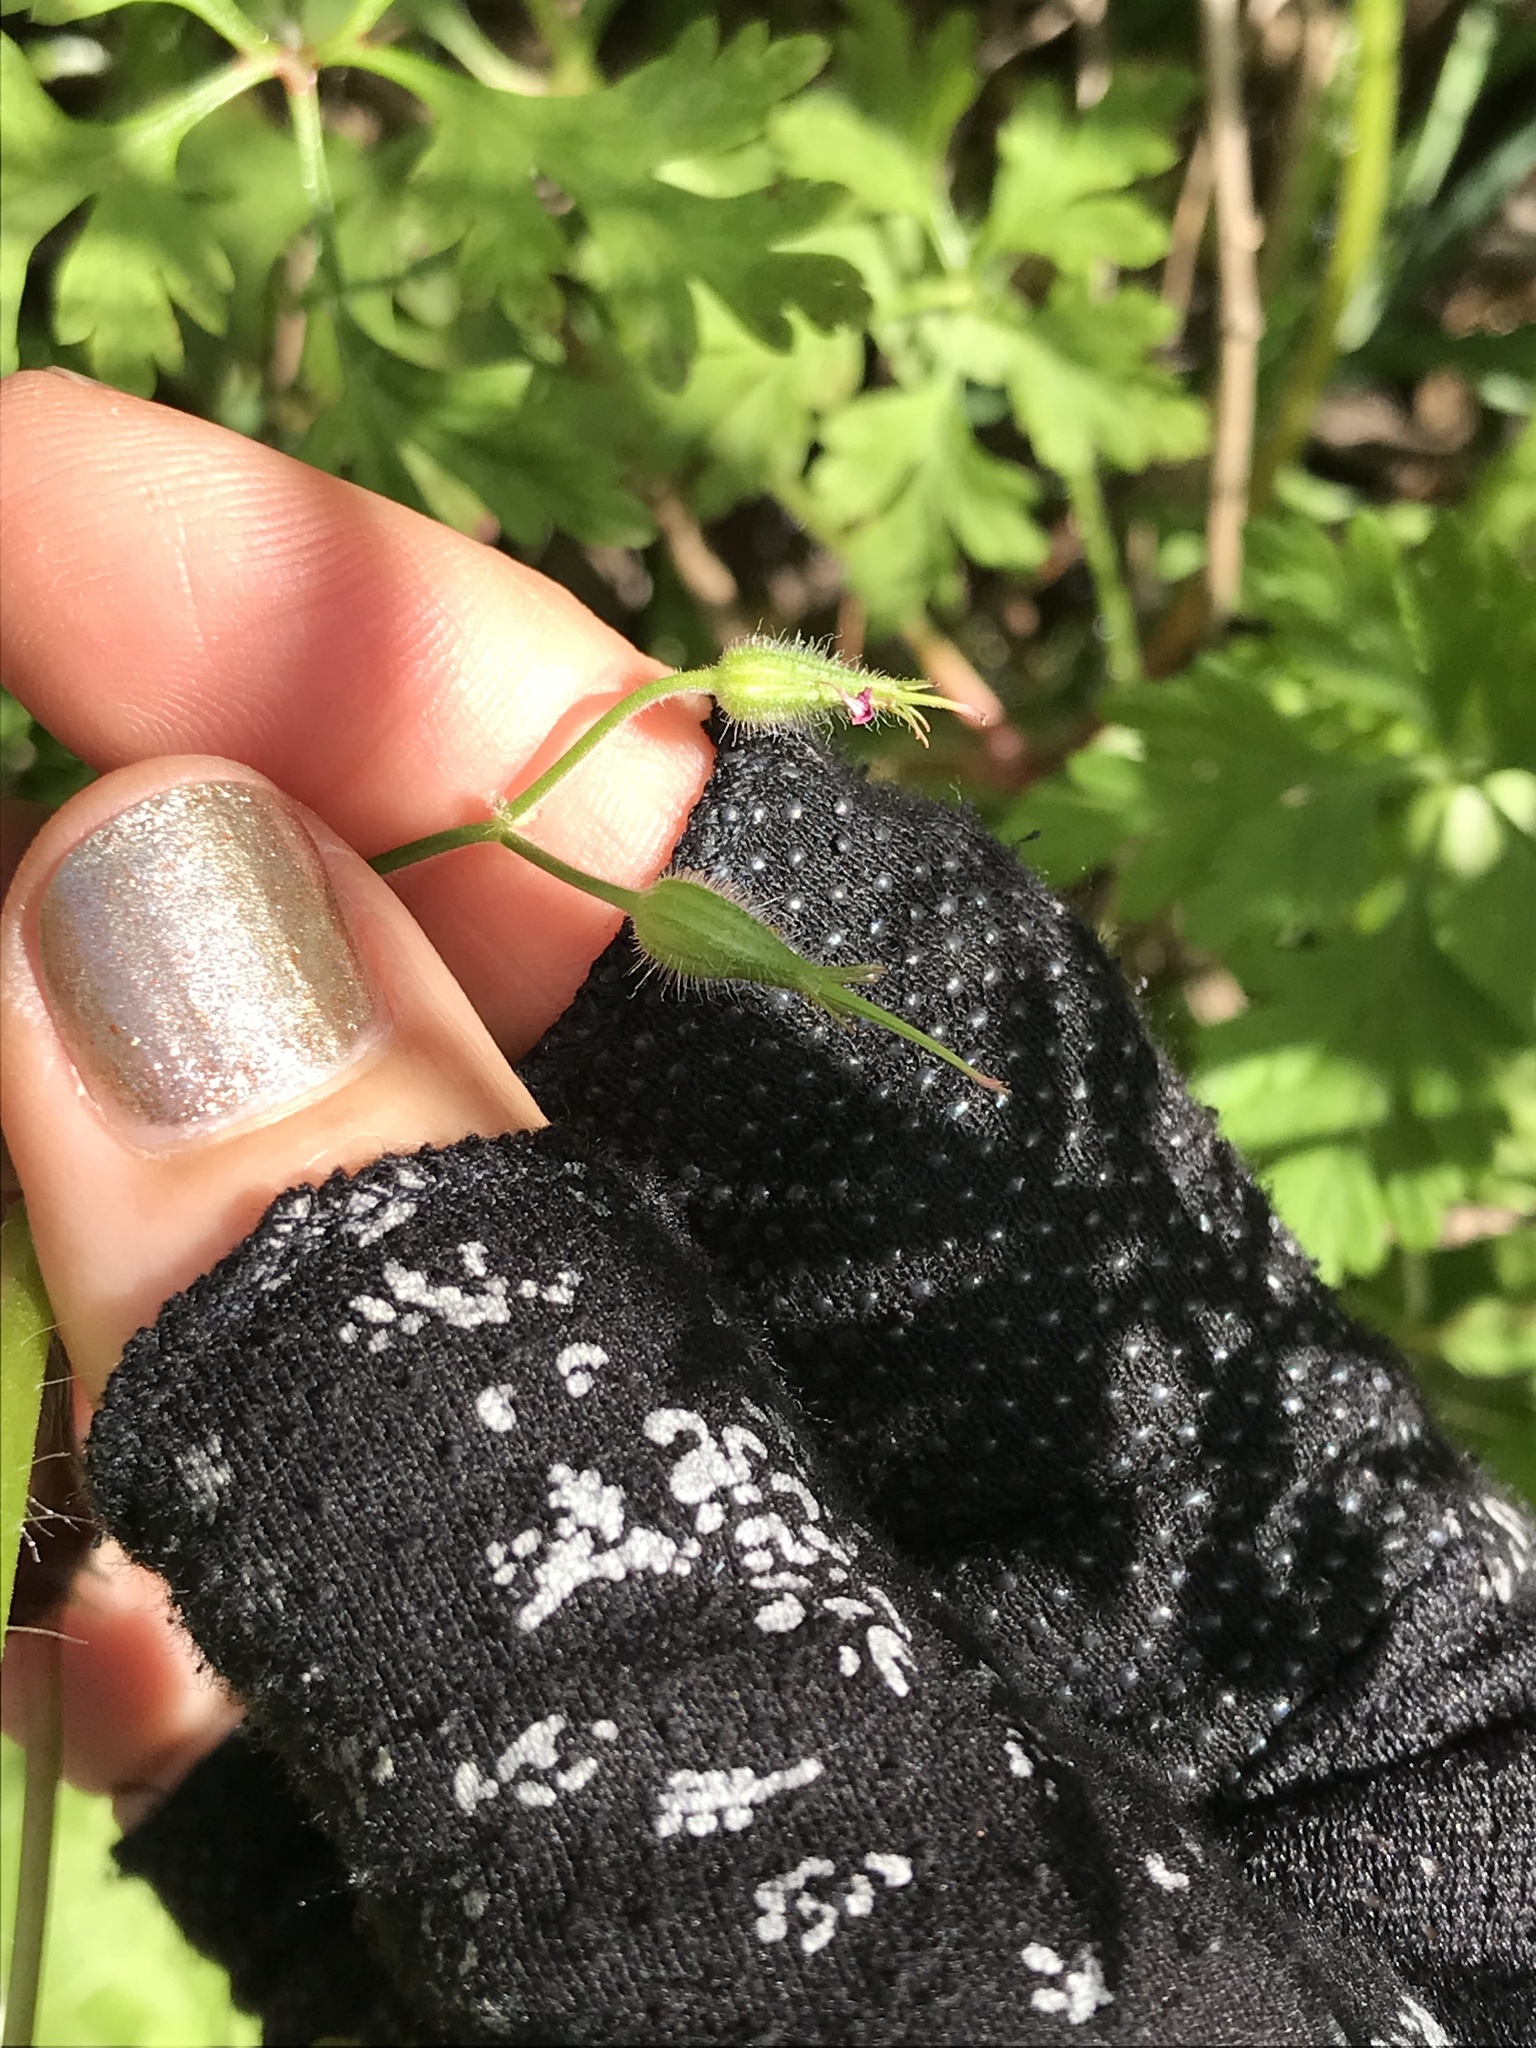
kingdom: Plantae
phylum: Tracheophyta
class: Magnoliopsida
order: Geraniales
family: Geraniaceae
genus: Geranium
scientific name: Geranium purpureum
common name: Little-robin
